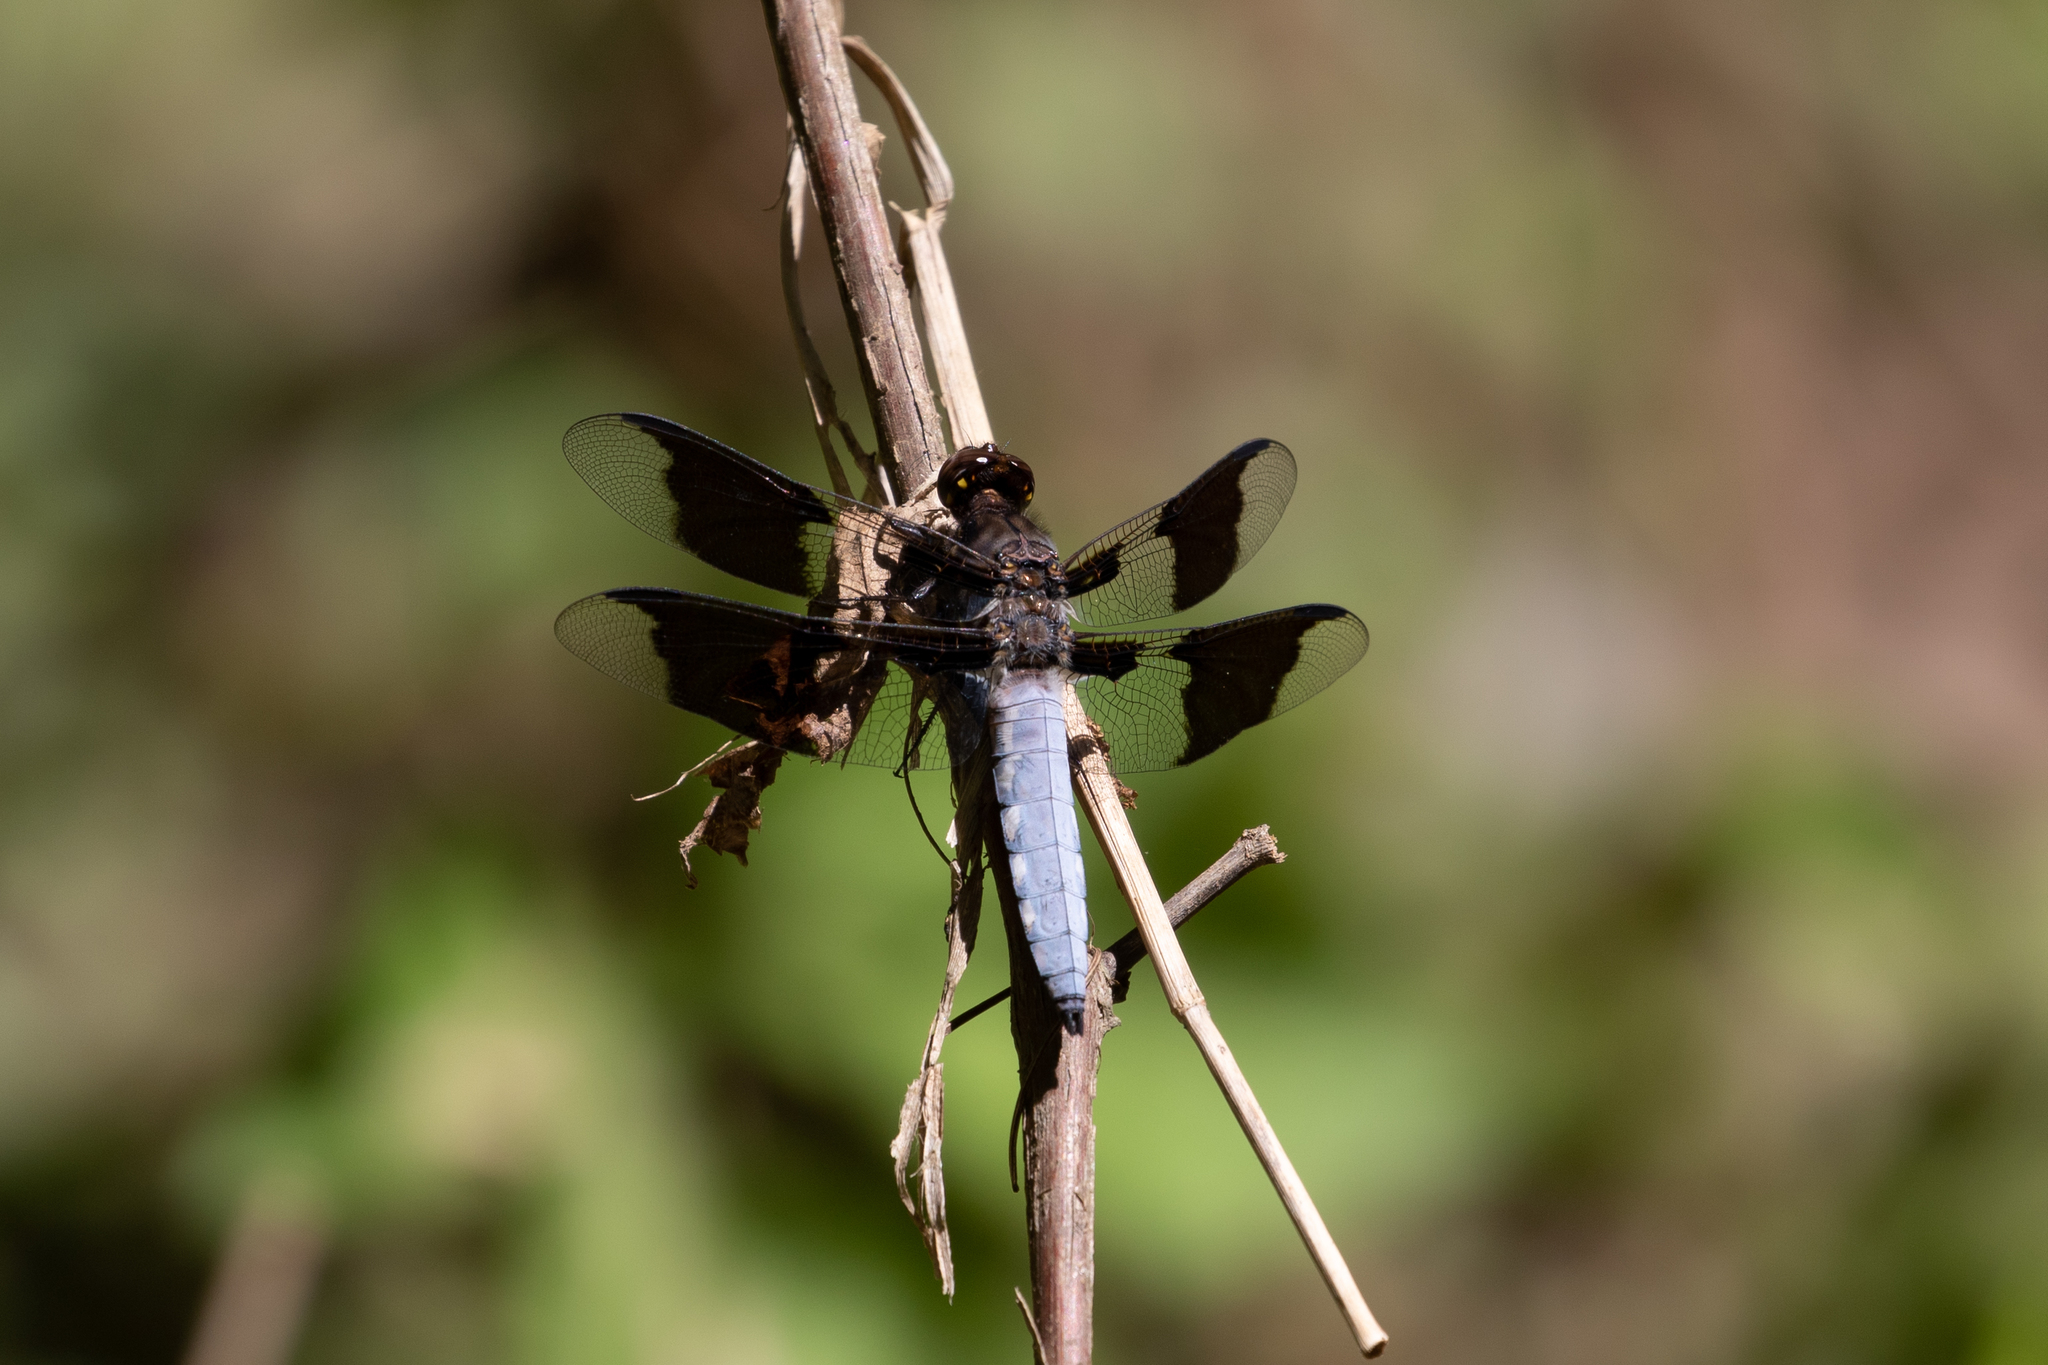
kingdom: Animalia
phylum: Arthropoda
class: Insecta
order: Odonata
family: Libellulidae
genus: Plathemis
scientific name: Plathemis lydia
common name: Common whitetail
